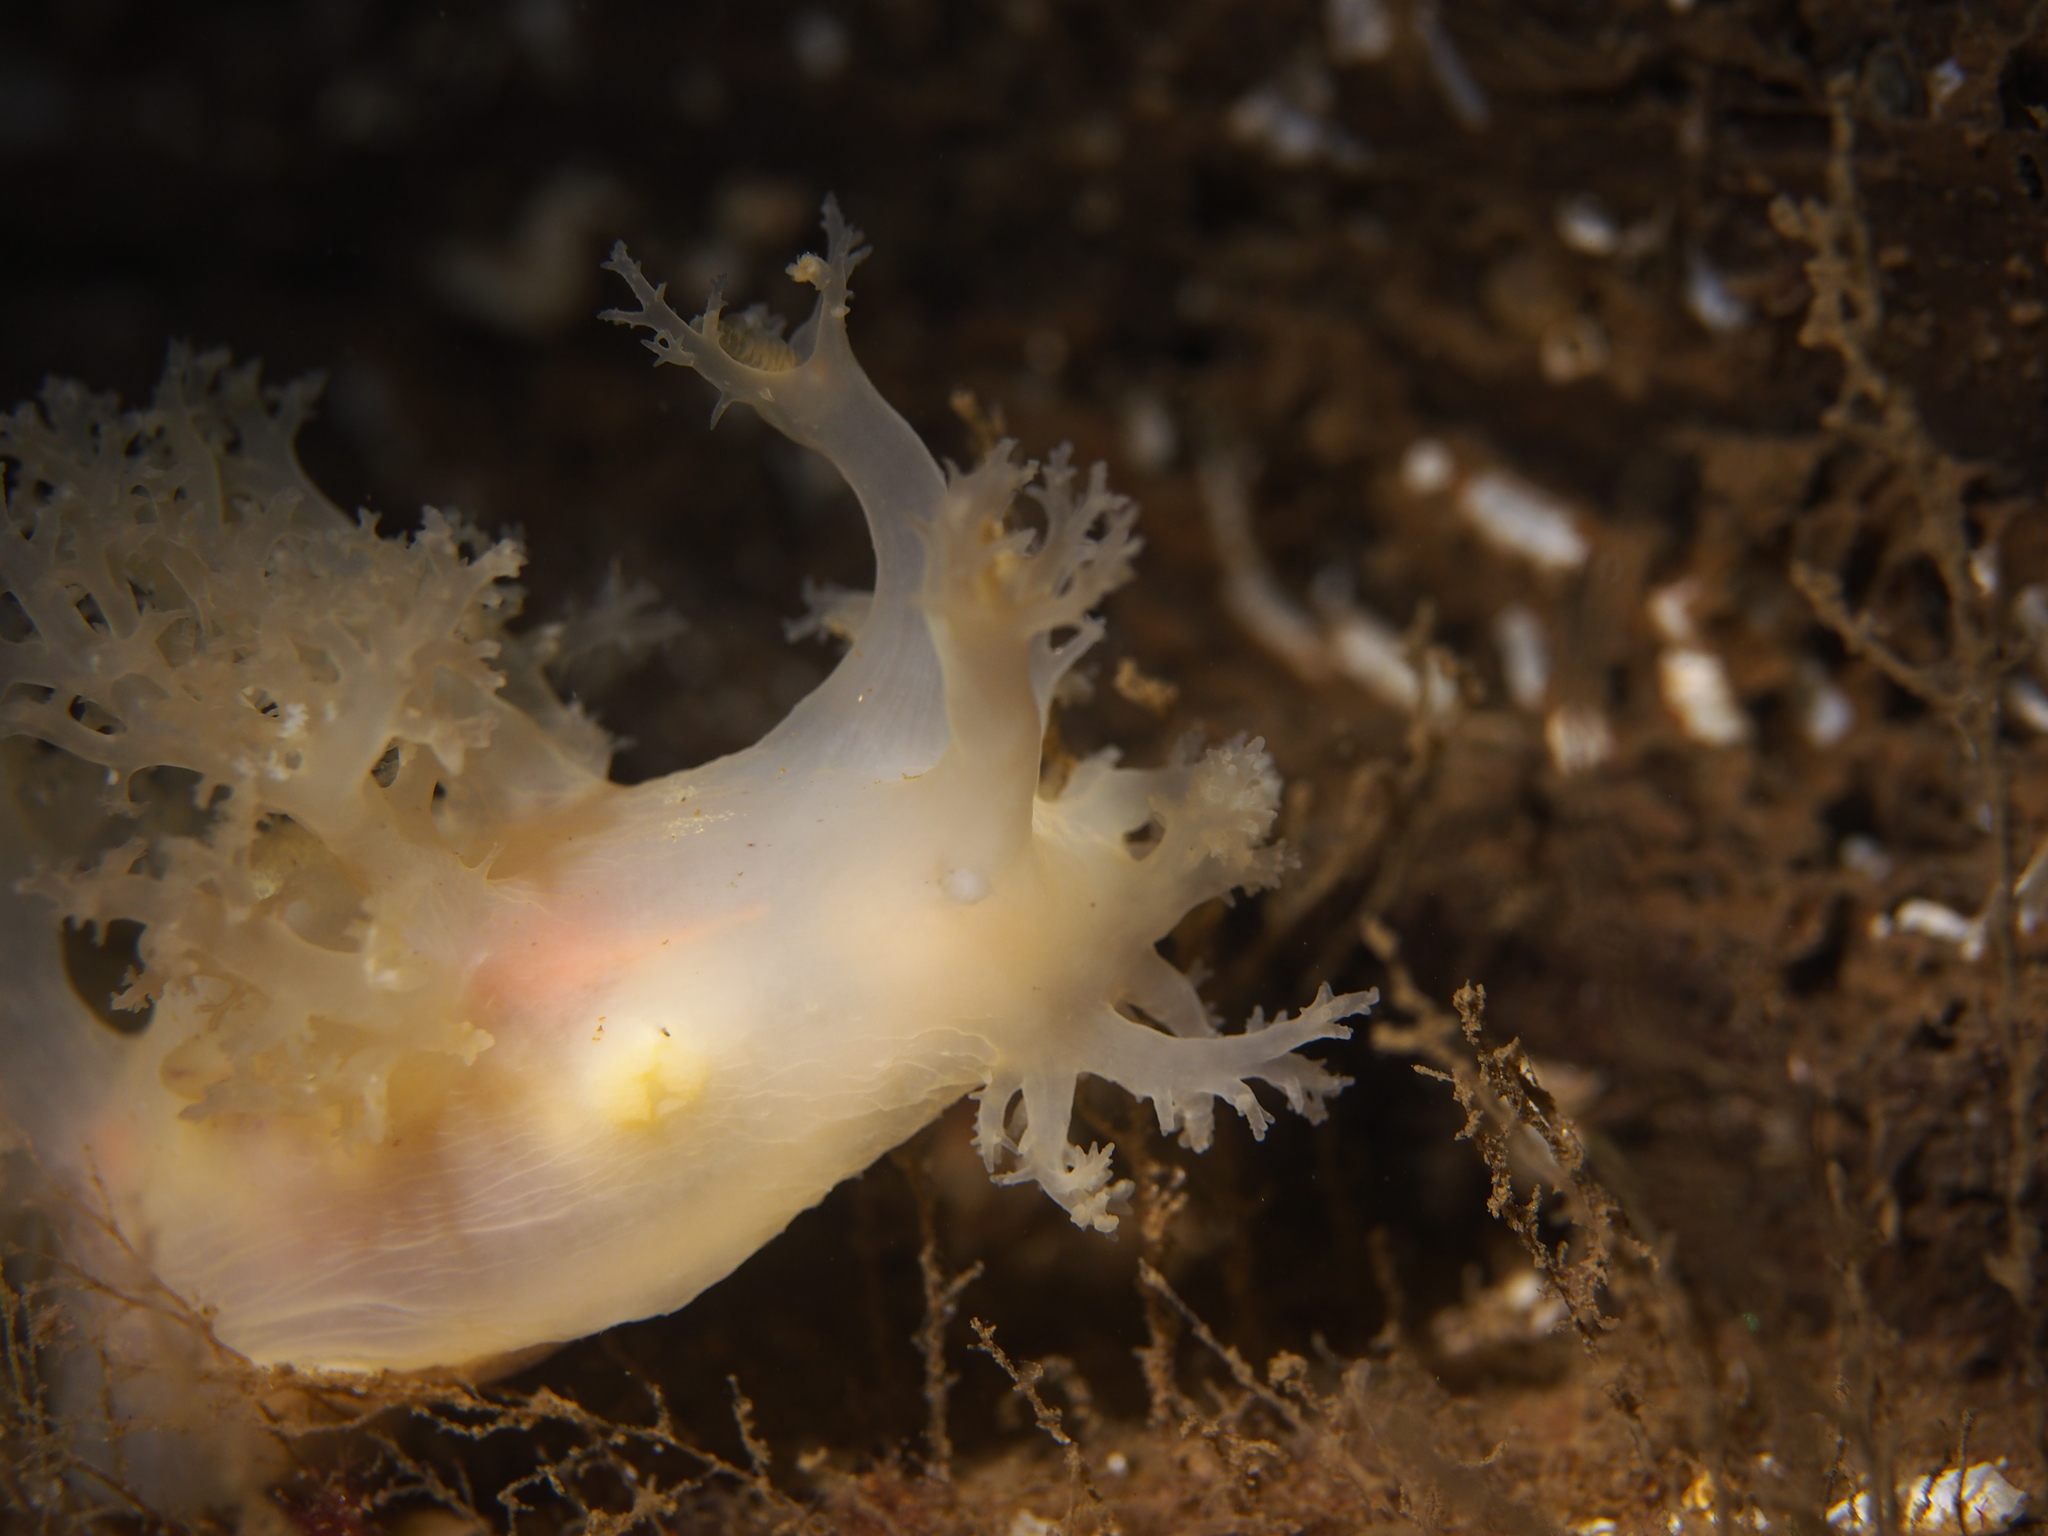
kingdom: Animalia
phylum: Mollusca
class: Gastropoda
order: Nudibranchia
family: Dendronotidae
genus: Dendronotus
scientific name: Dendronotus lacteus
